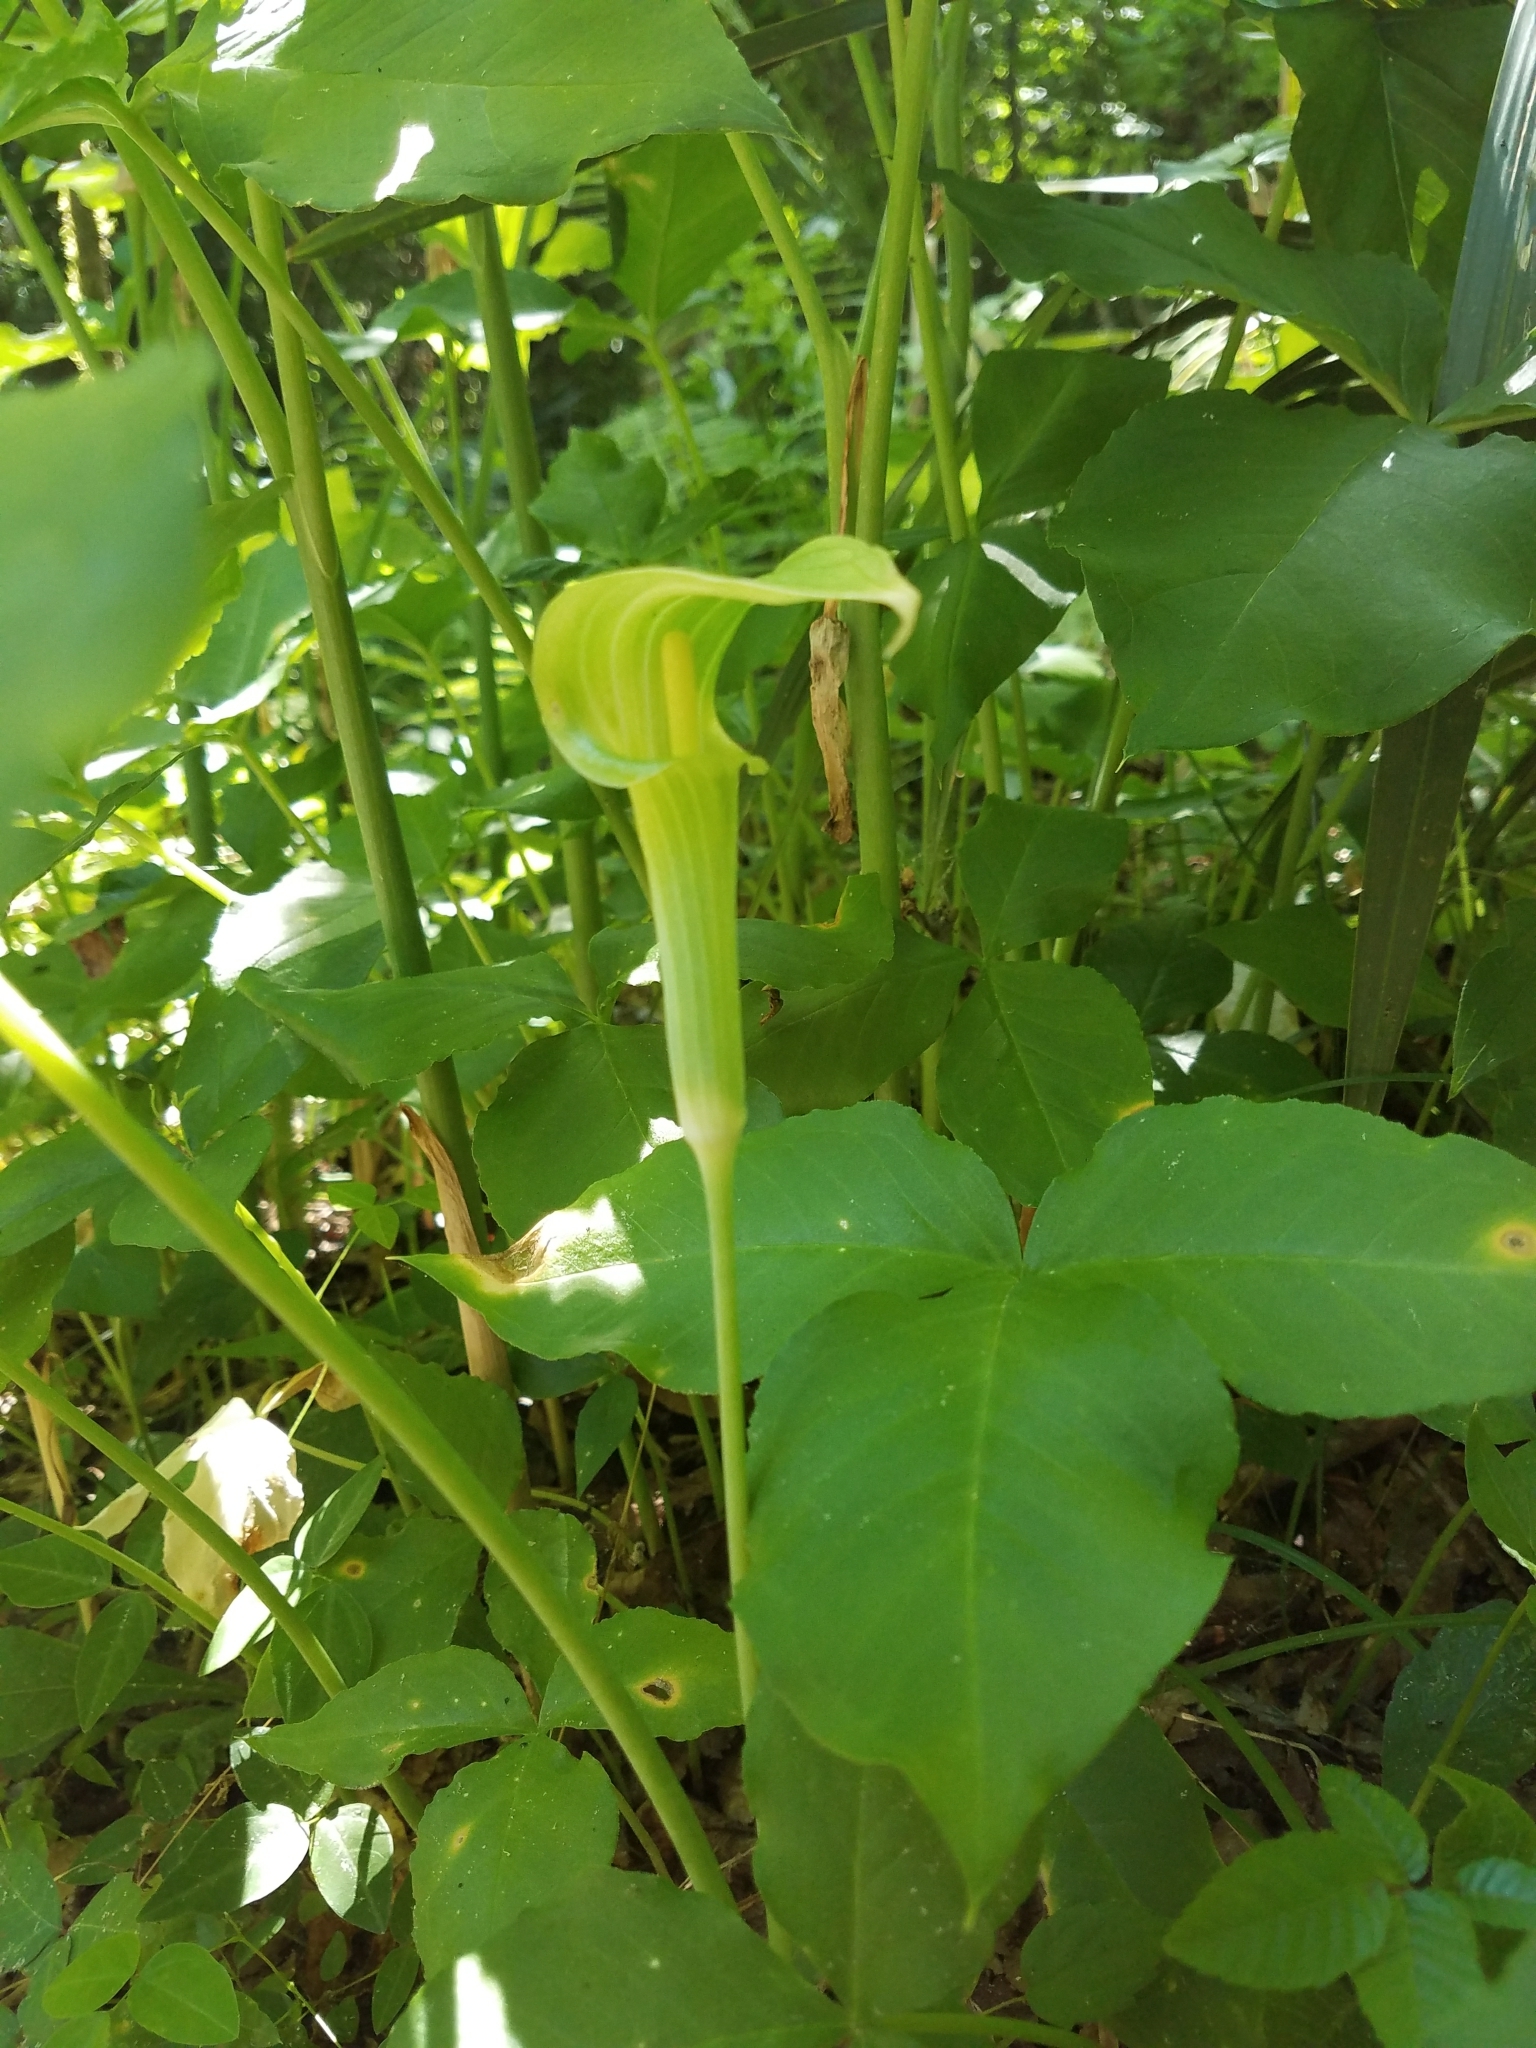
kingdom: Plantae
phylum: Tracheophyta
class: Liliopsida
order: Alismatales
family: Araceae
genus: Arisaema
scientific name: Arisaema acuminatum
